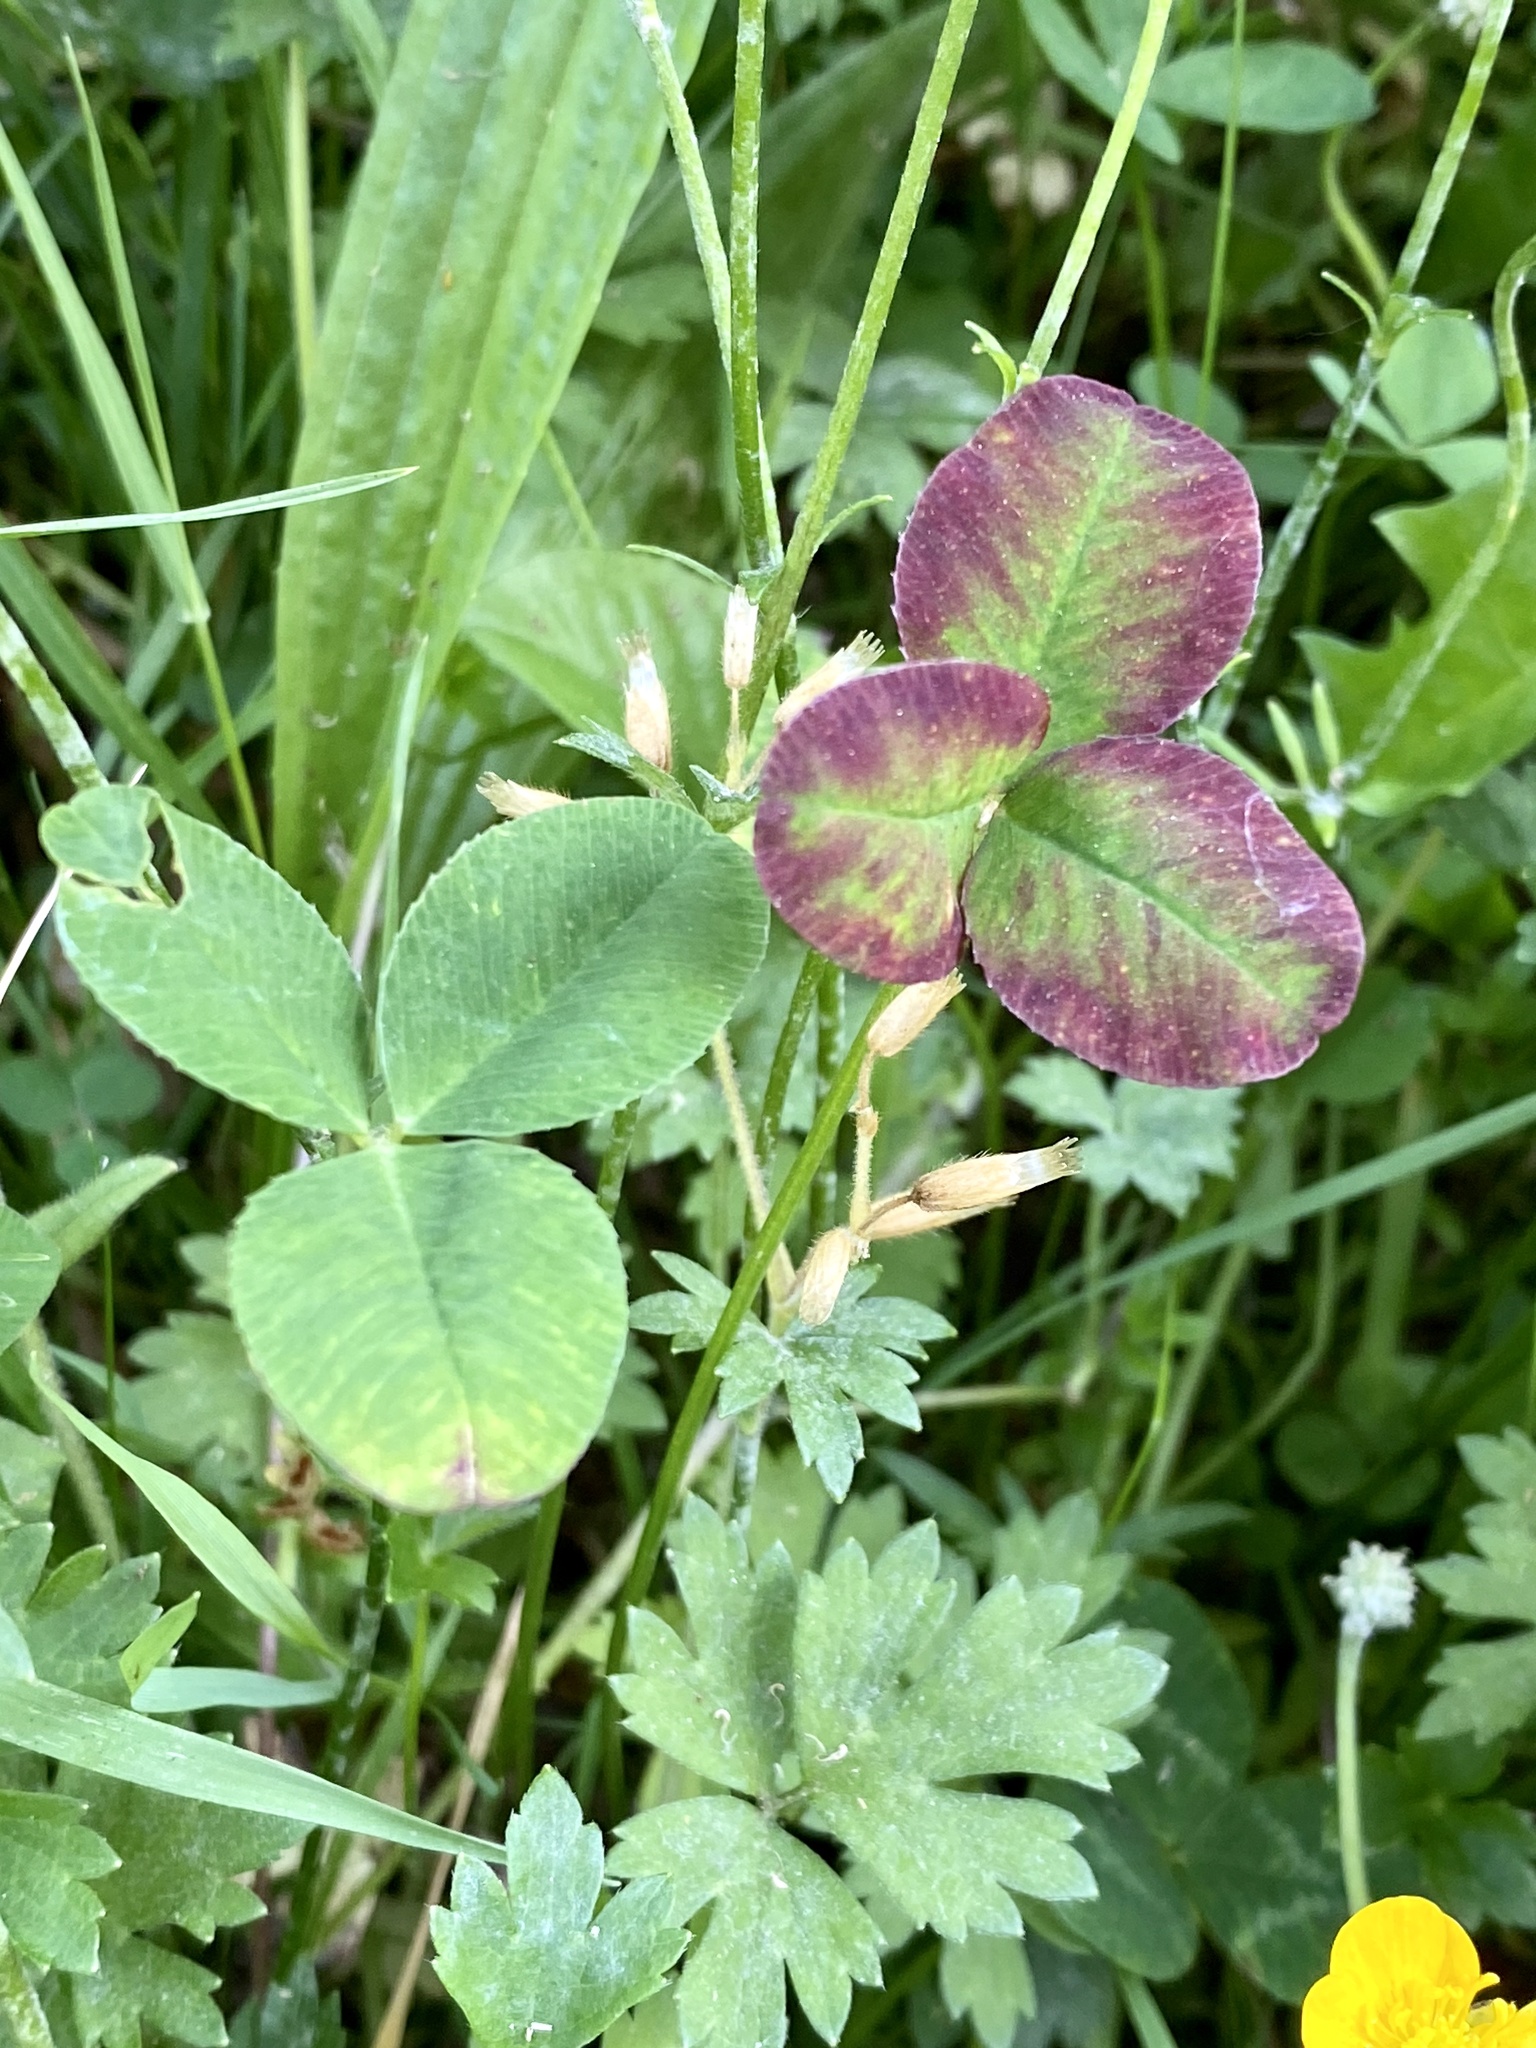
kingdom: Plantae
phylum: Tracheophyta
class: Magnoliopsida
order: Fabales
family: Fabaceae
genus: Trifolium
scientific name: Trifolium repens
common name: White clover
